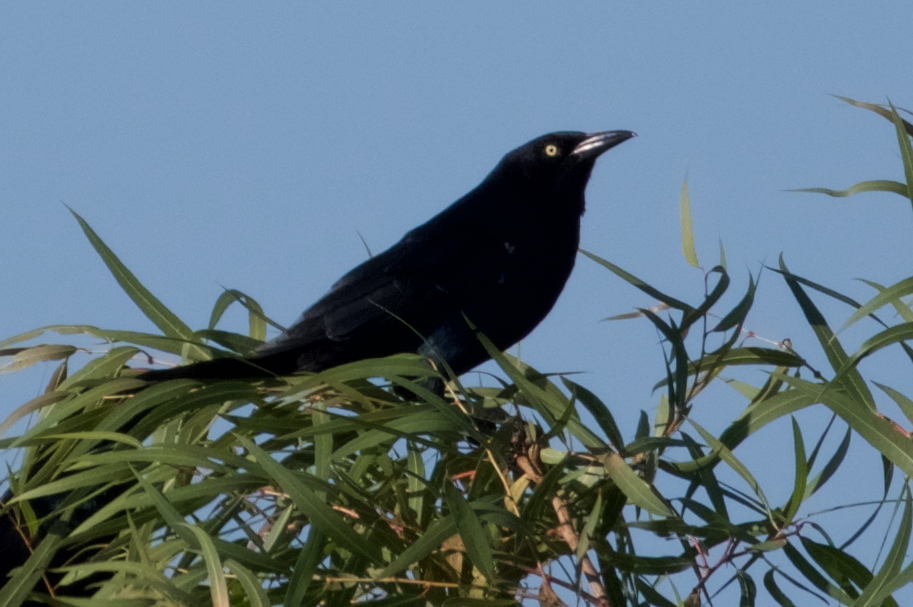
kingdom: Animalia
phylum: Chordata
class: Aves
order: Passeriformes
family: Icteridae
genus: Quiscalus
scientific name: Quiscalus mexicanus
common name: Great-tailed grackle
